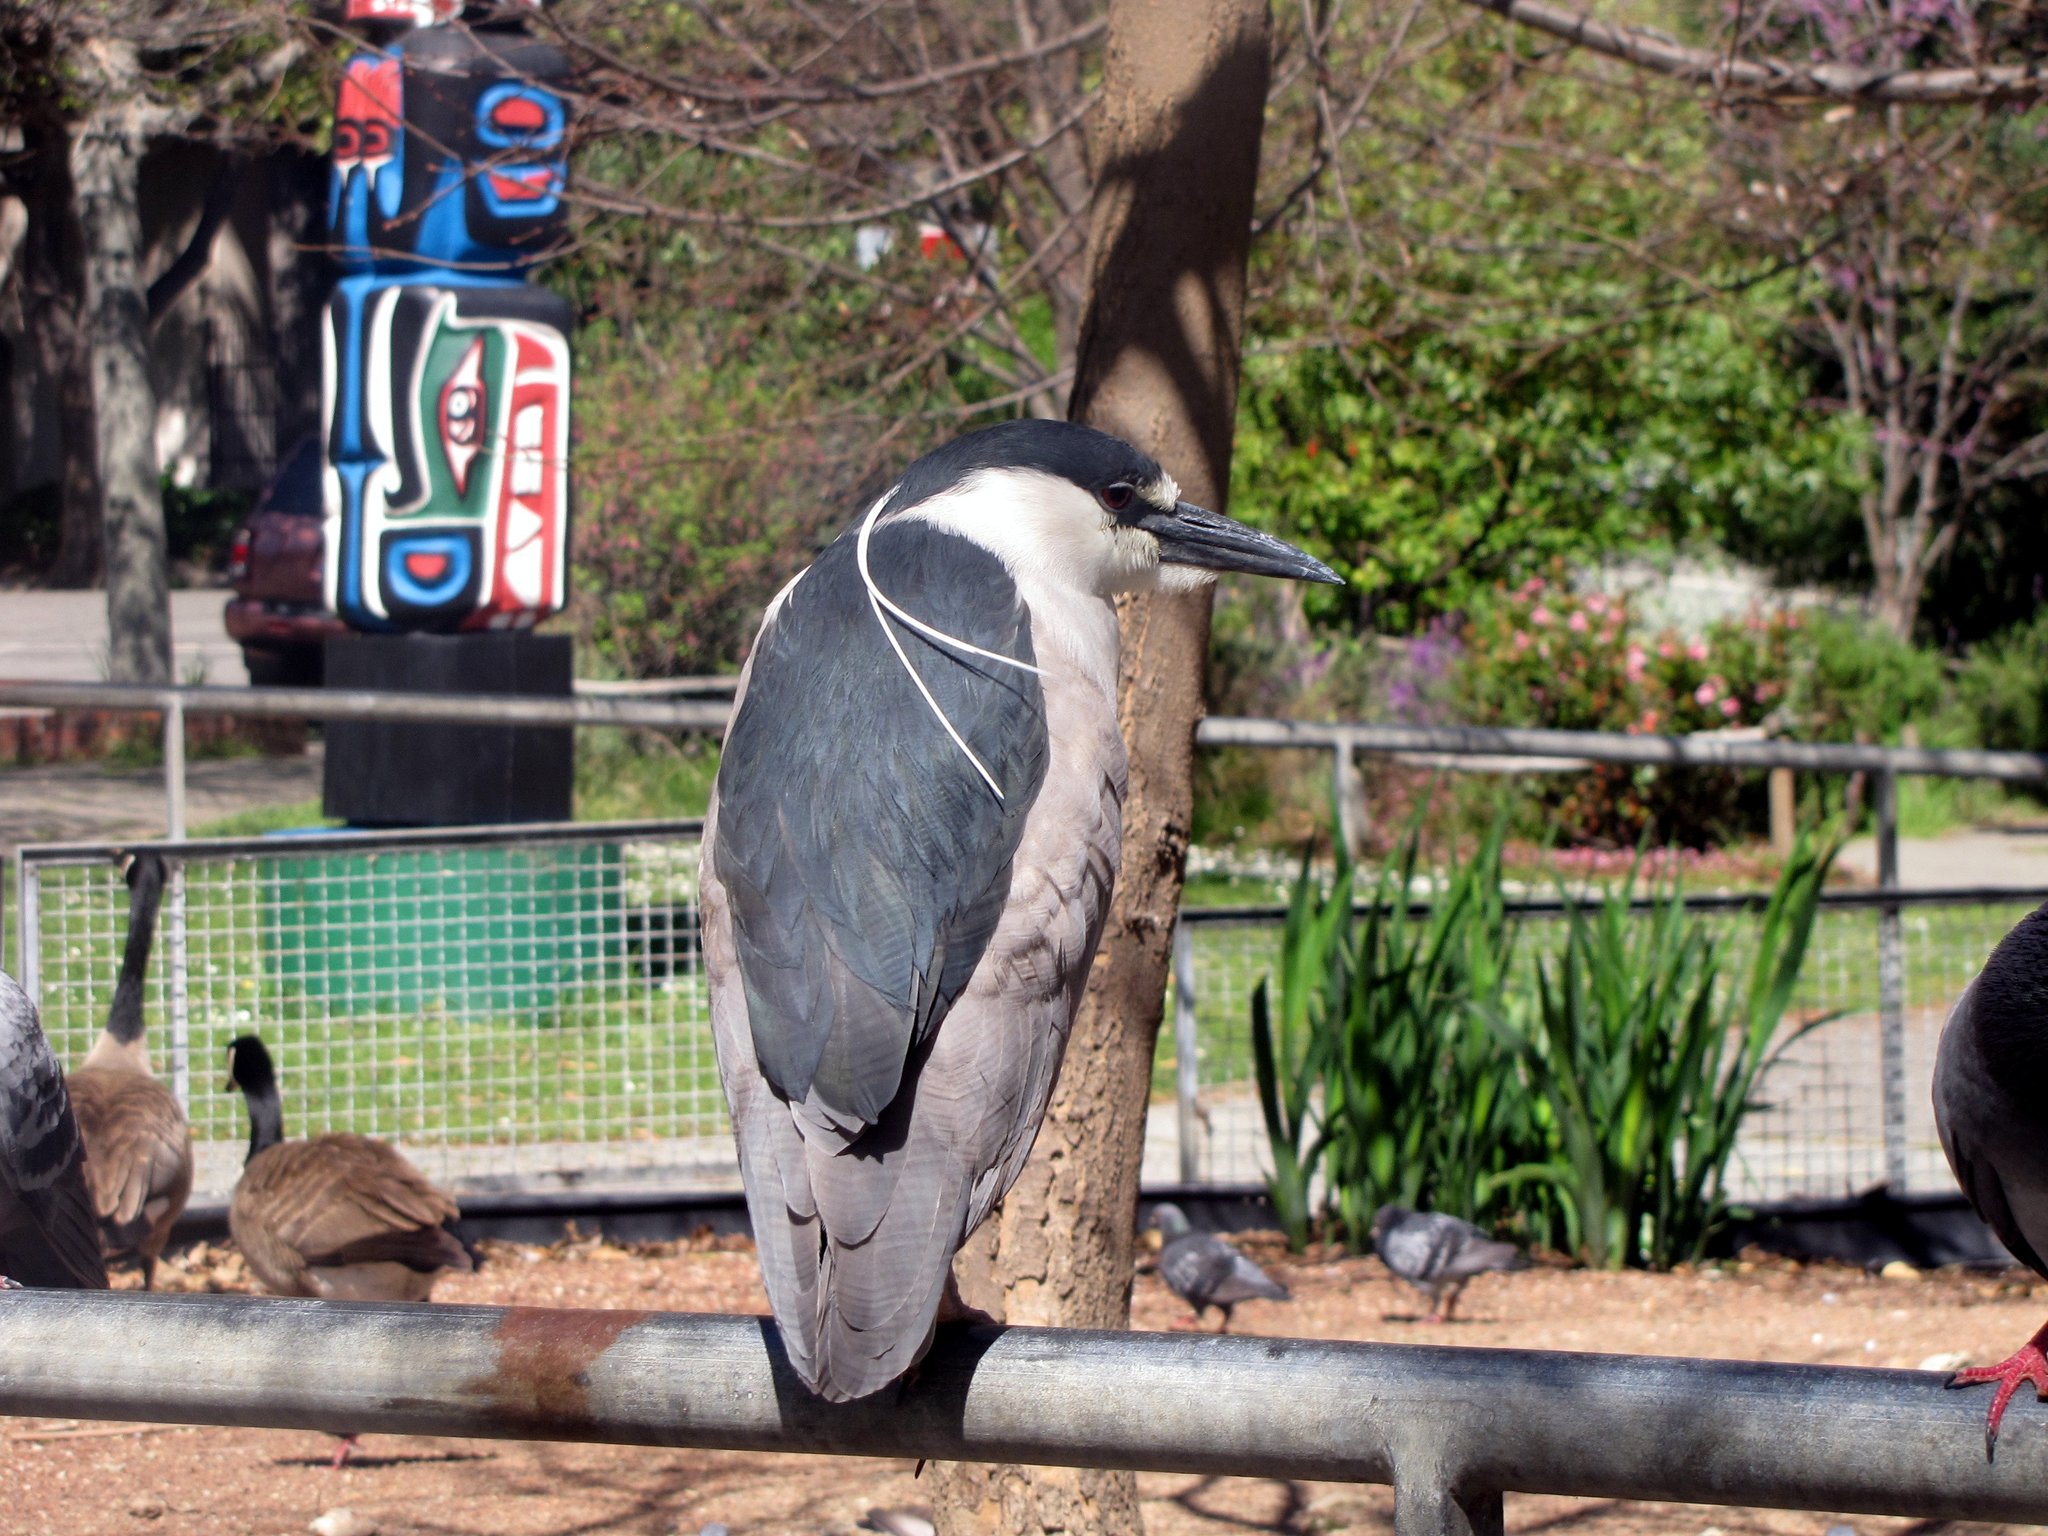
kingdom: Animalia
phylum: Chordata
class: Aves
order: Pelecaniformes
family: Ardeidae
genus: Nycticorax
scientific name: Nycticorax nycticorax
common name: Black-crowned night heron
